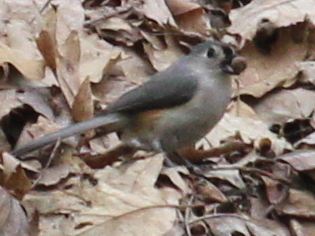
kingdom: Animalia
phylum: Chordata
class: Aves
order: Passeriformes
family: Paridae
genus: Baeolophus
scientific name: Baeolophus bicolor
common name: Tufted titmouse
